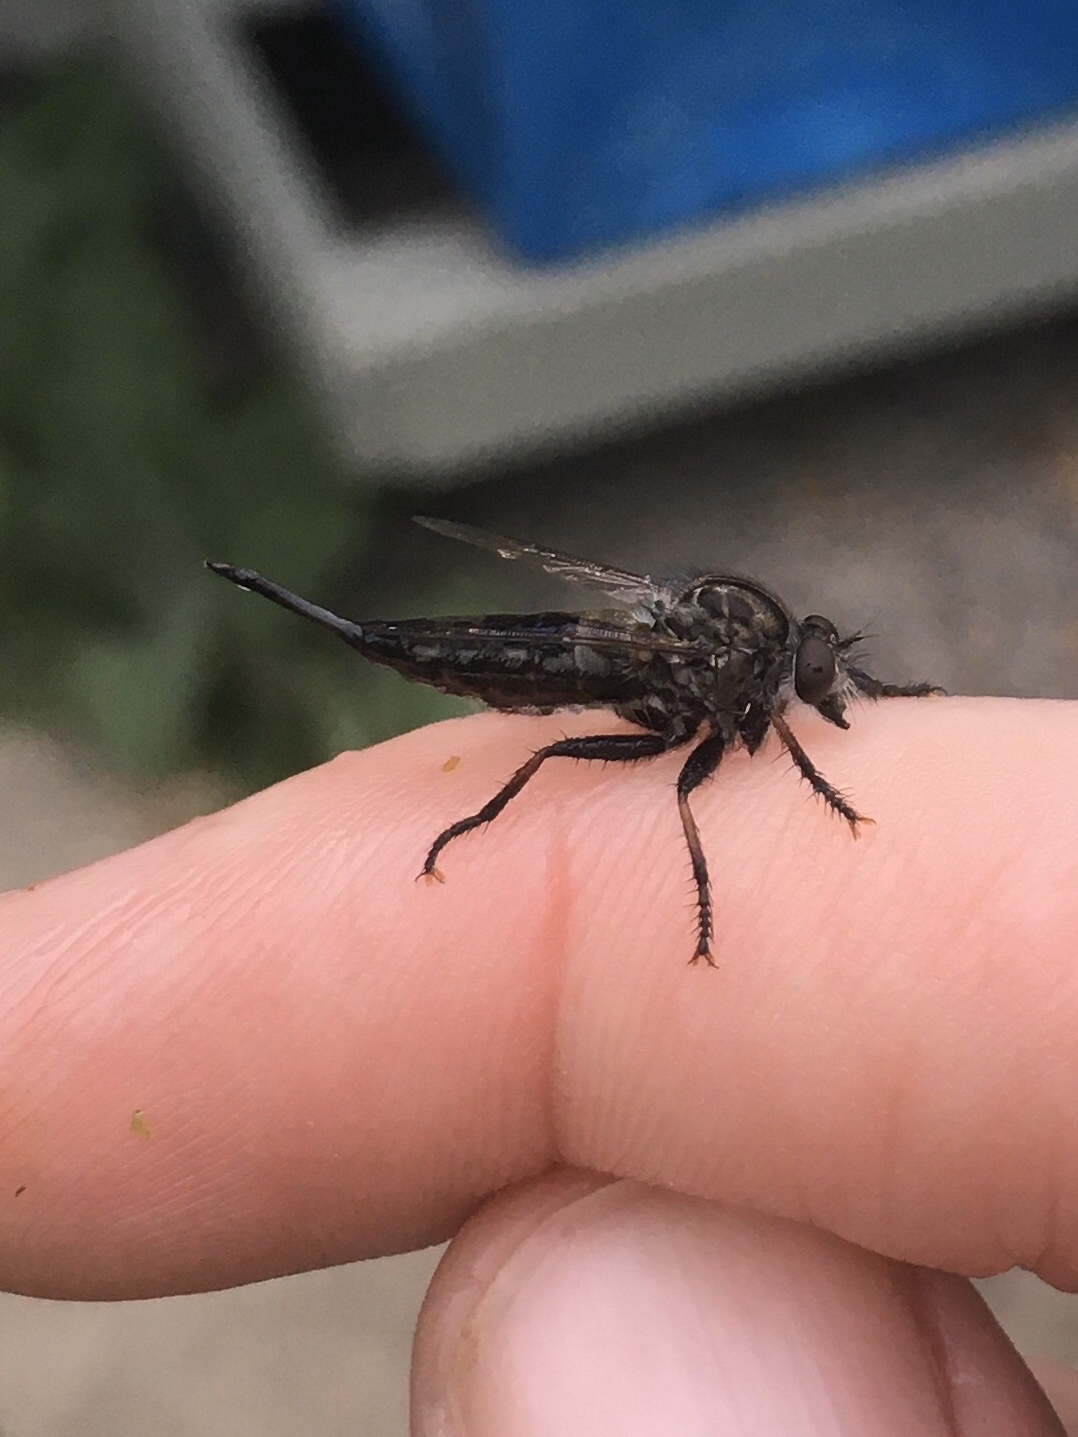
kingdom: Animalia
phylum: Arthropoda
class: Insecta
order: Diptera
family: Asilidae
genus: Efferia
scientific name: Efferia aestuans
